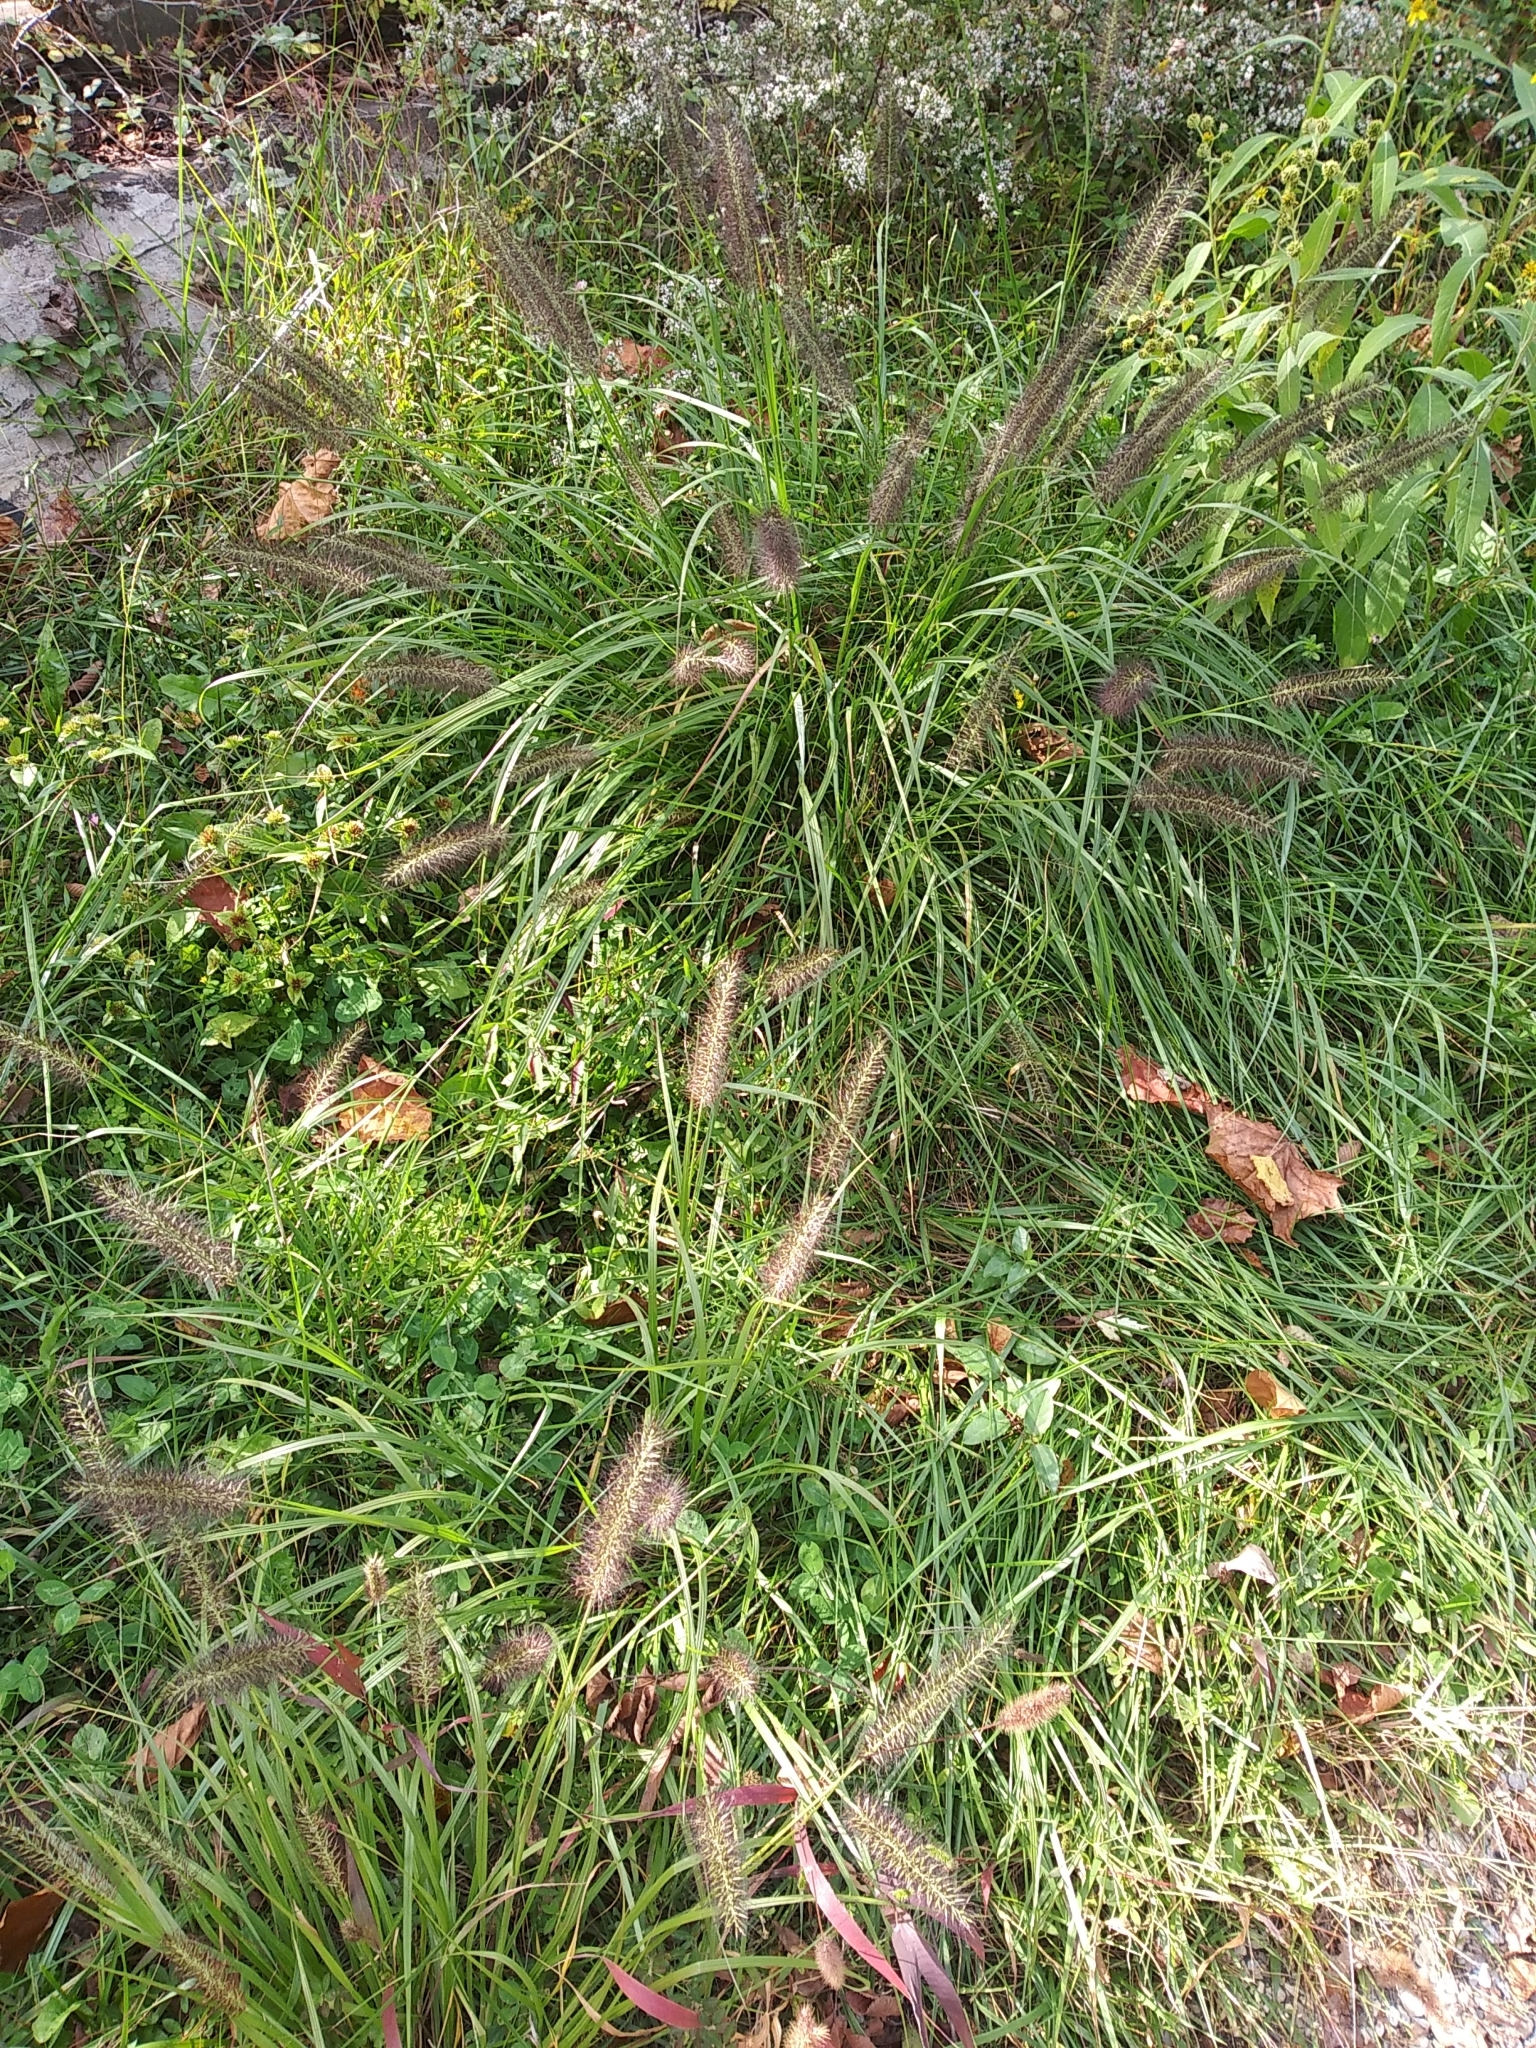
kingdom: Plantae
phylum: Tracheophyta
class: Liliopsida
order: Poales
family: Poaceae
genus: Cenchrus
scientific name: Cenchrus alopecuroides
